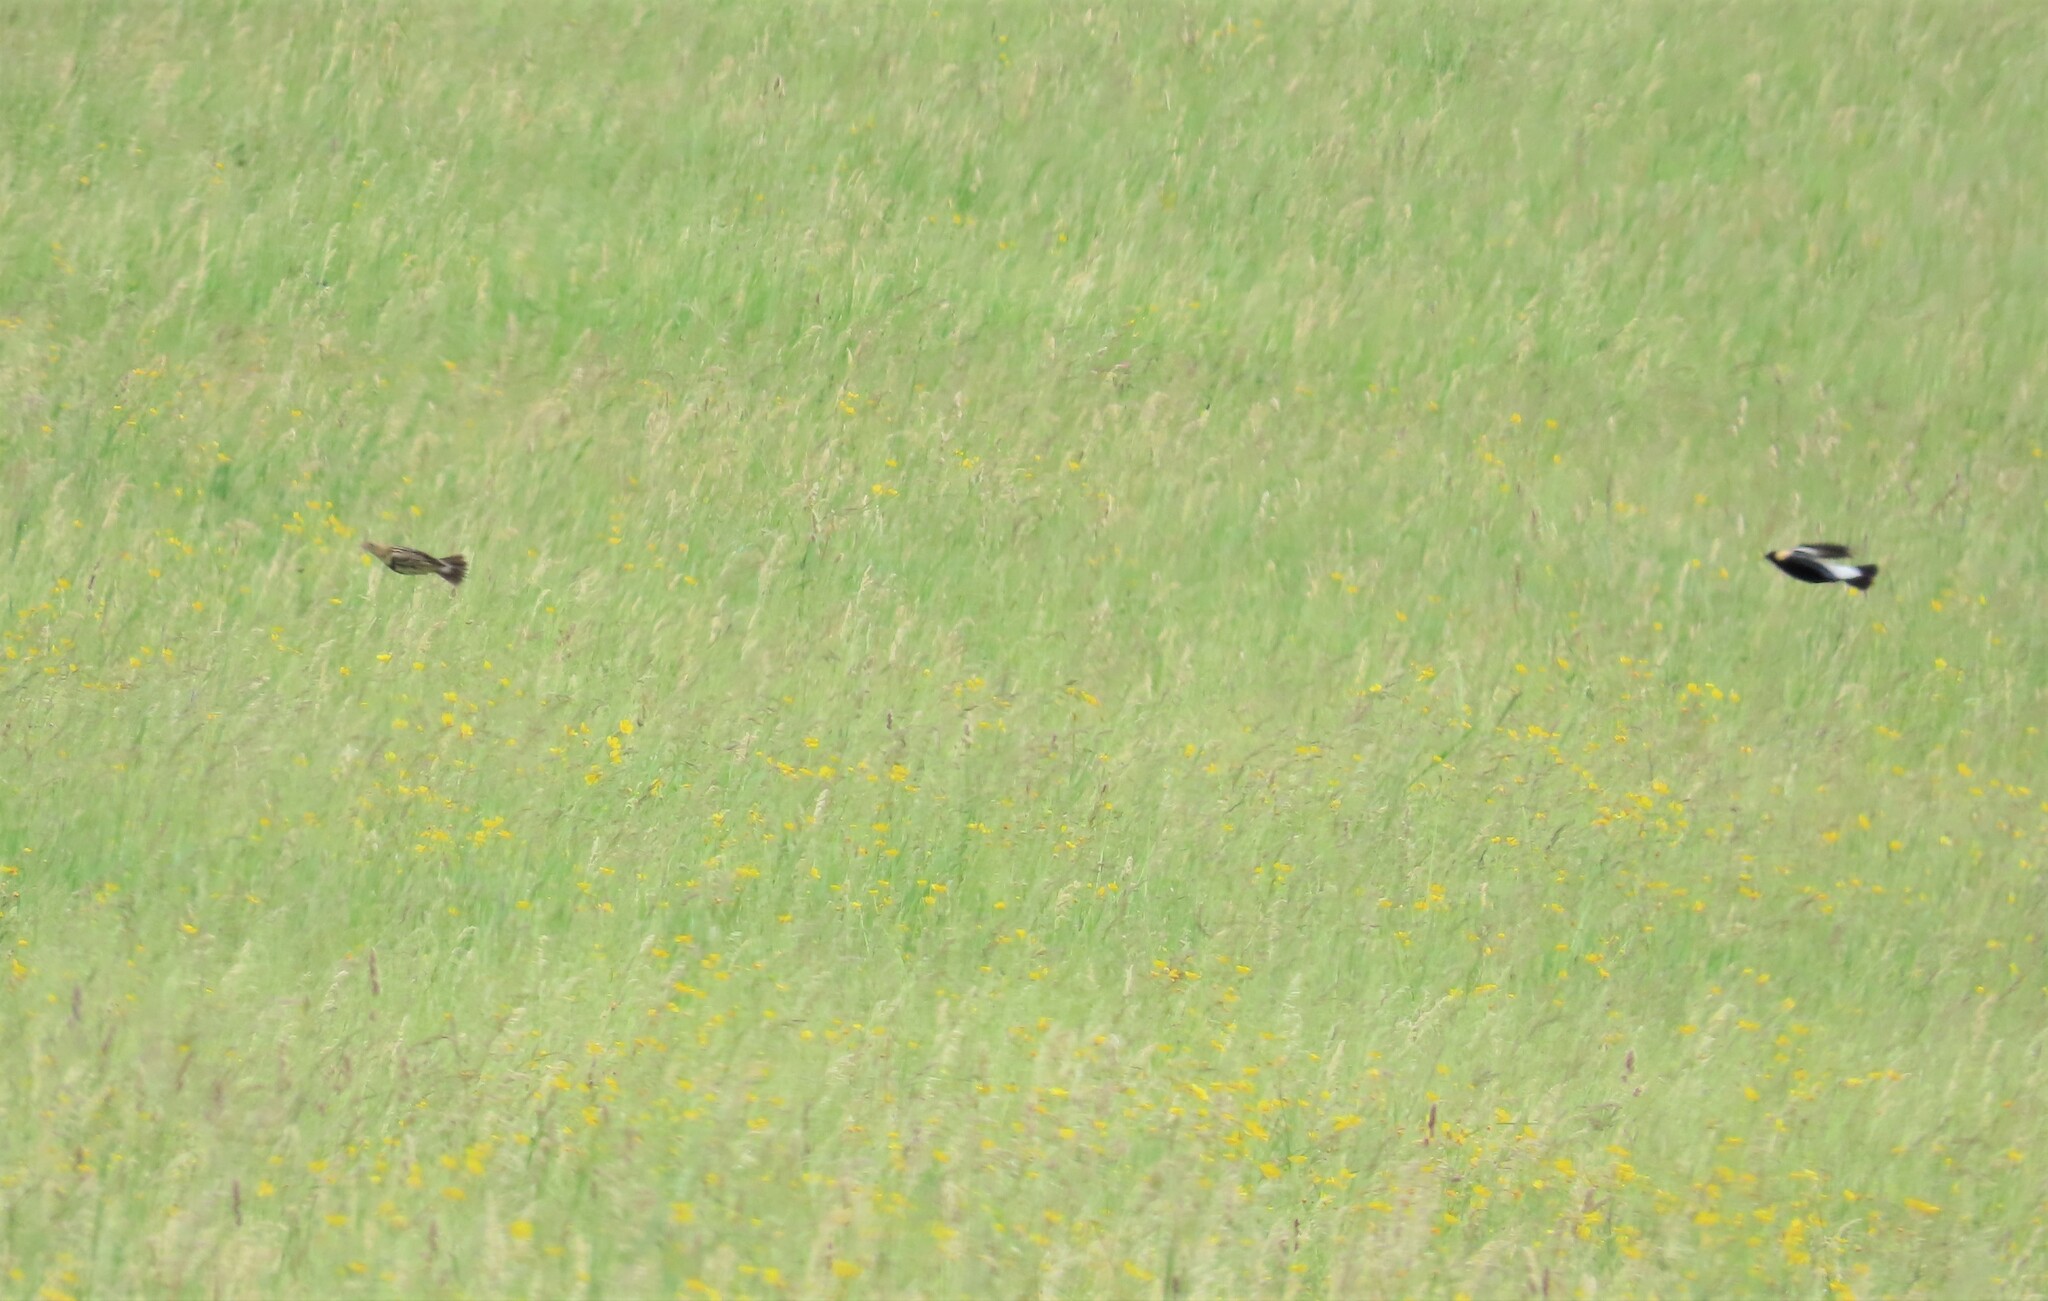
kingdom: Animalia
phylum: Chordata
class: Aves
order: Passeriformes
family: Icteridae
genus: Dolichonyx
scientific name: Dolichonyx oryzivorus
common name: Bobolink
